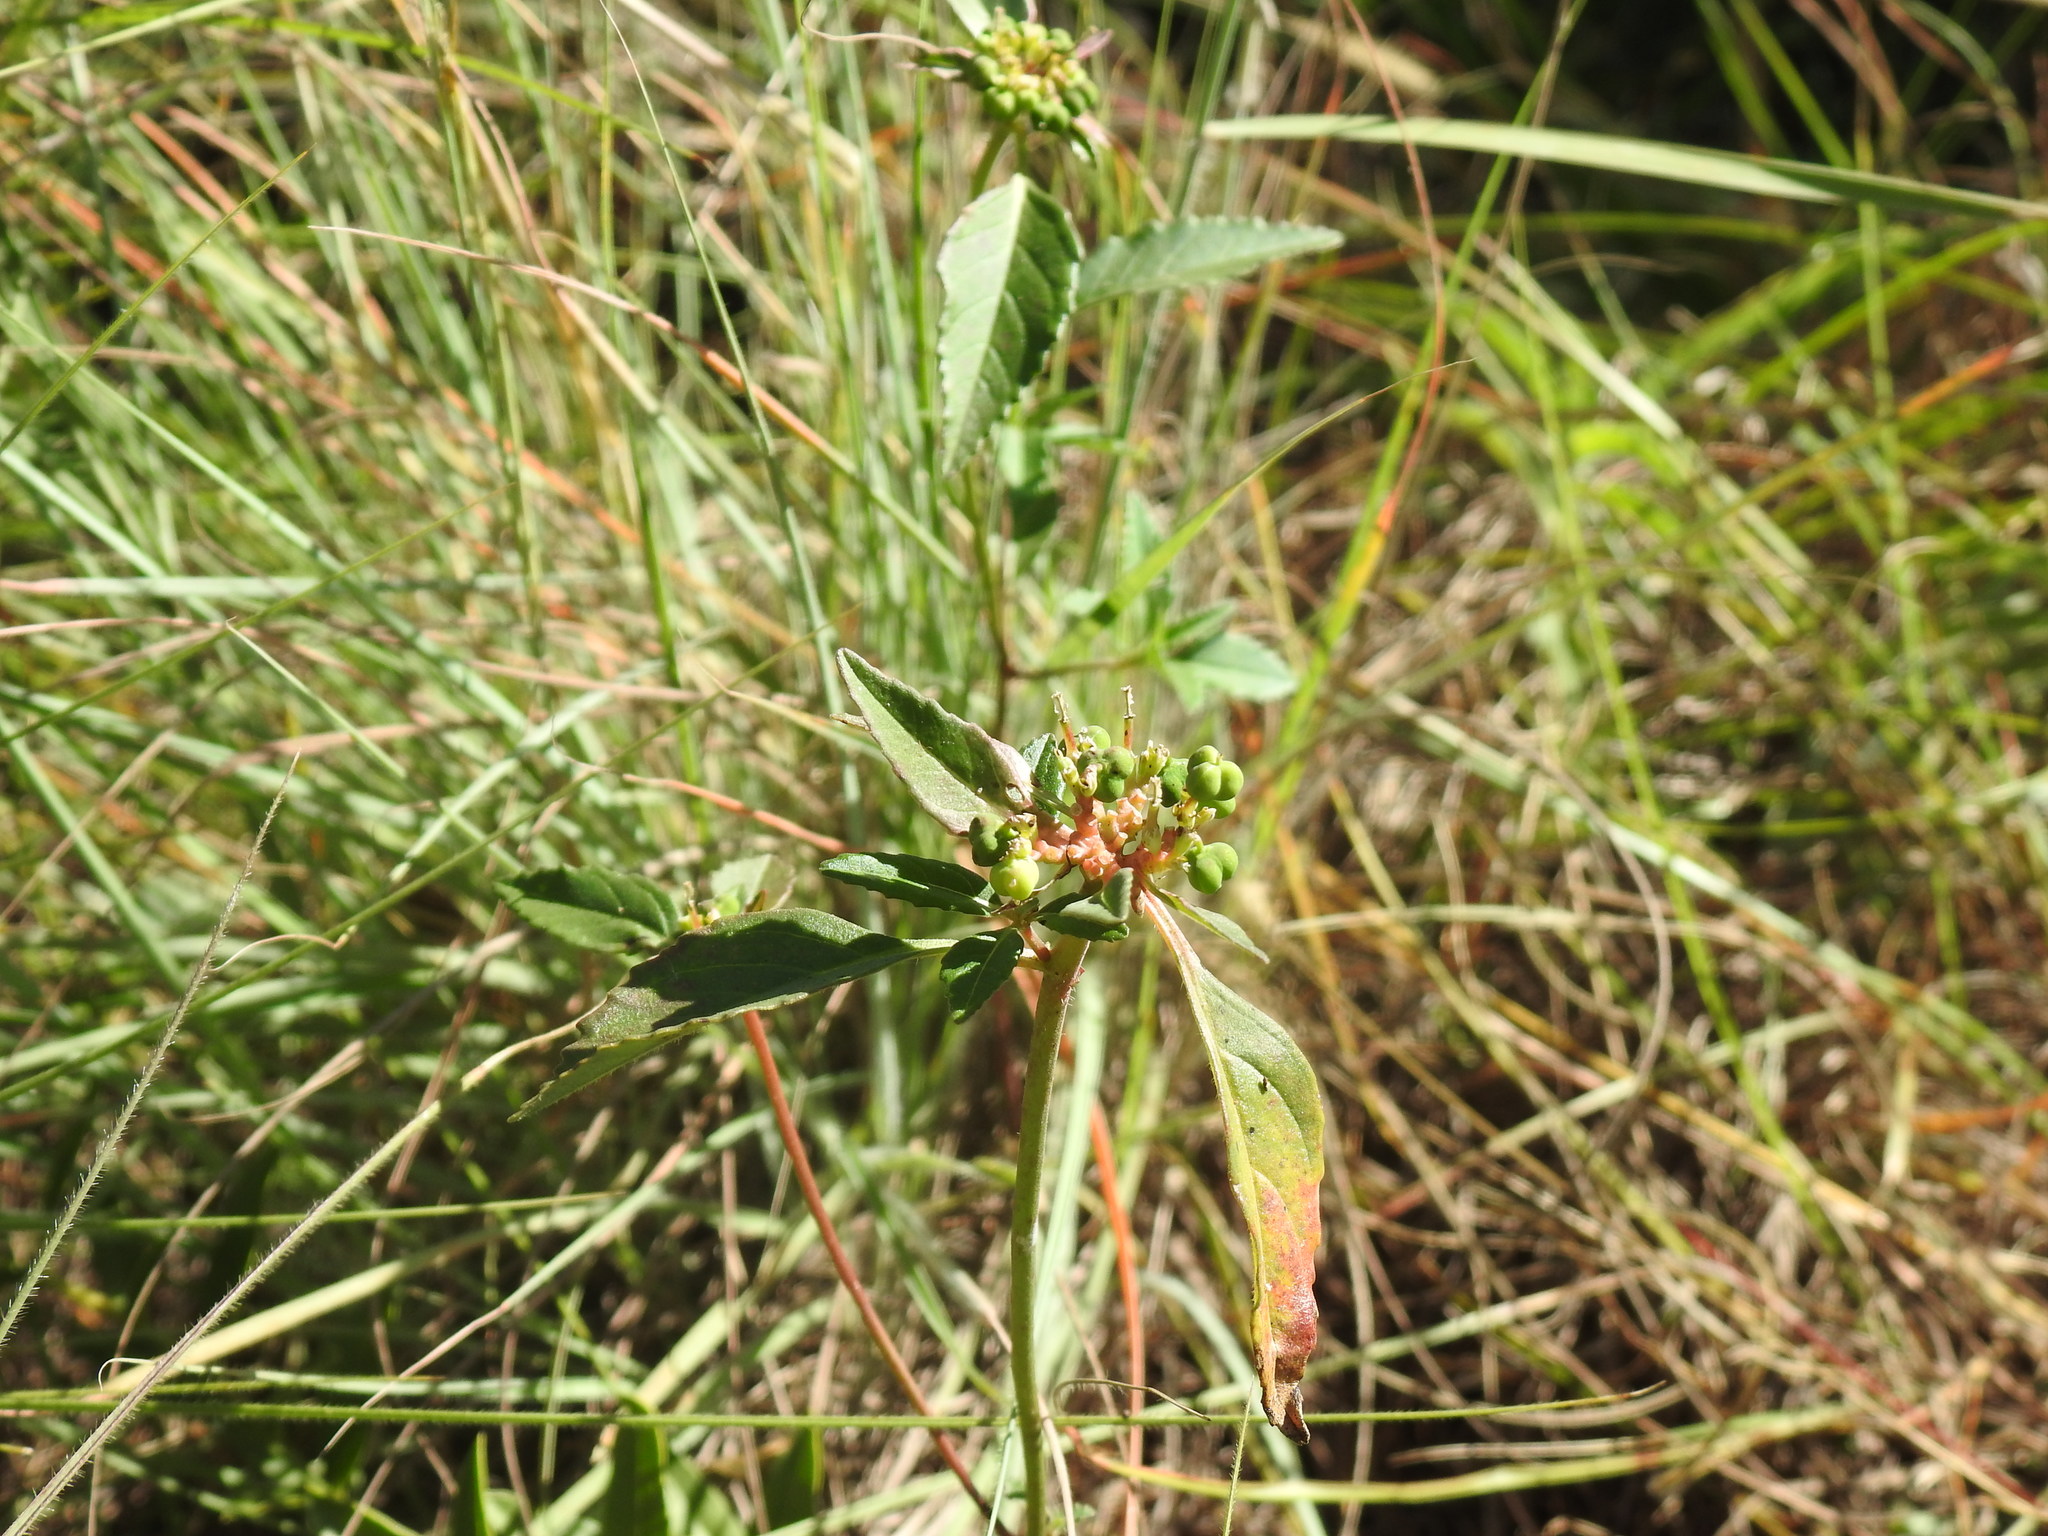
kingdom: Plantae
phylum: Tracheophyta
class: Magnoliopsida
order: Malpighiales
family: Euphorbiaceae
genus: Euphorbia
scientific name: Euphorbia dentata
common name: Dentate spurge
